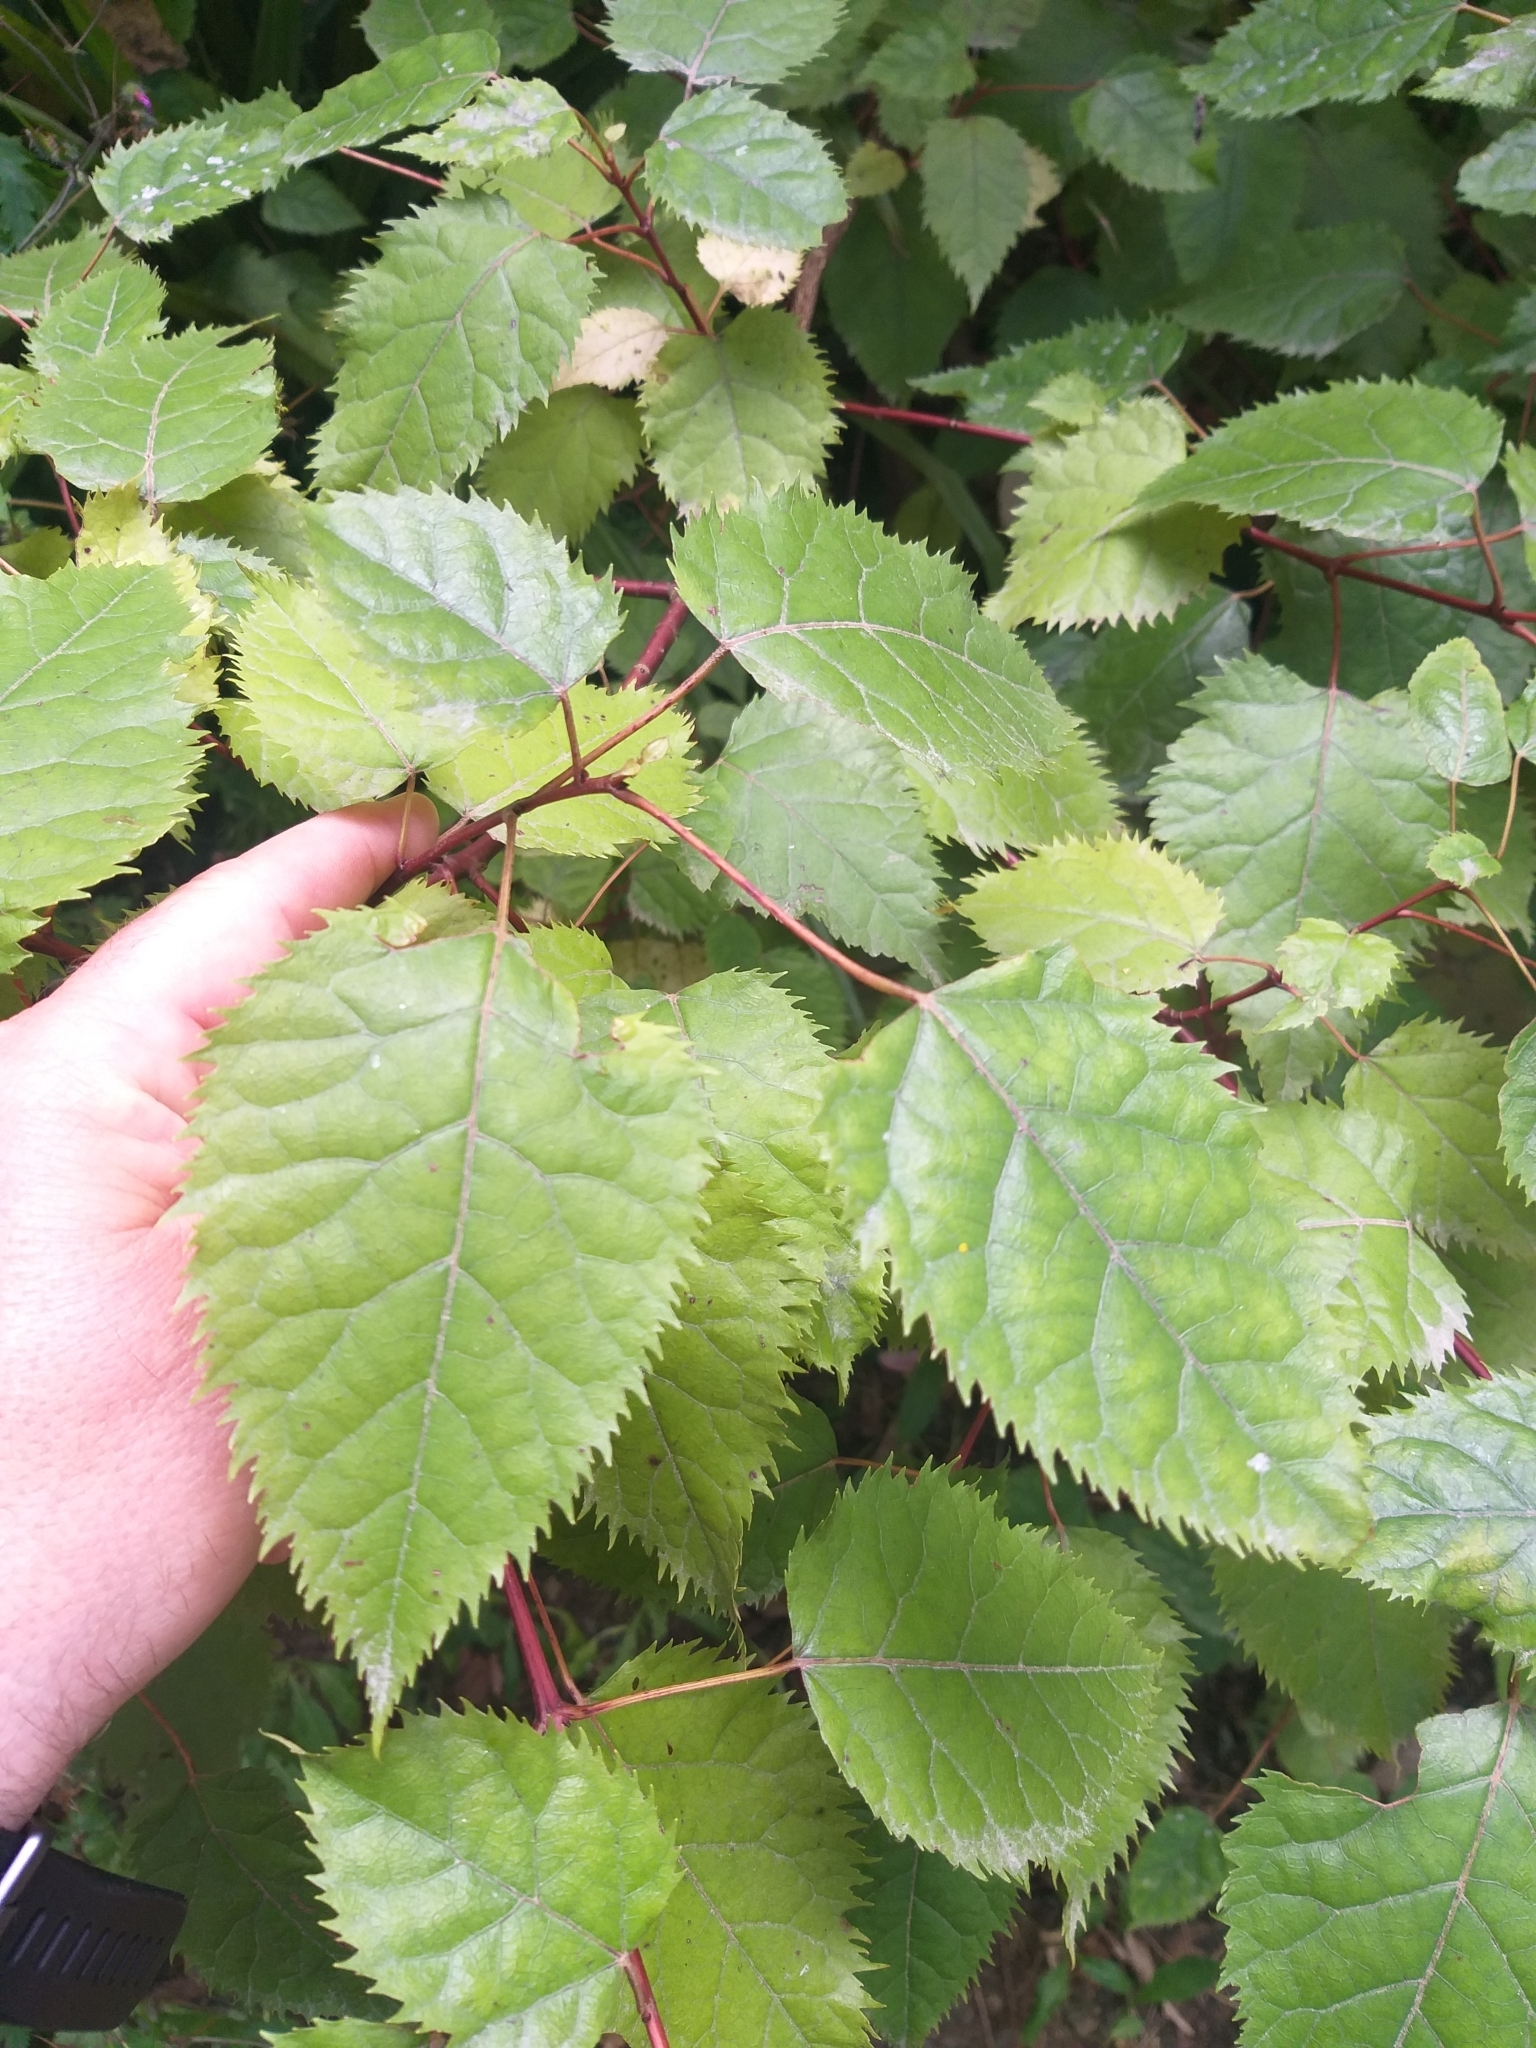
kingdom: Plantae
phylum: Tracheophyta
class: Magnoliopsida
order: Oxalidales
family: Elaeocarpaceae
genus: Aristotelia
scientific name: Aristotelia serrata
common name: New zealand wineberry
